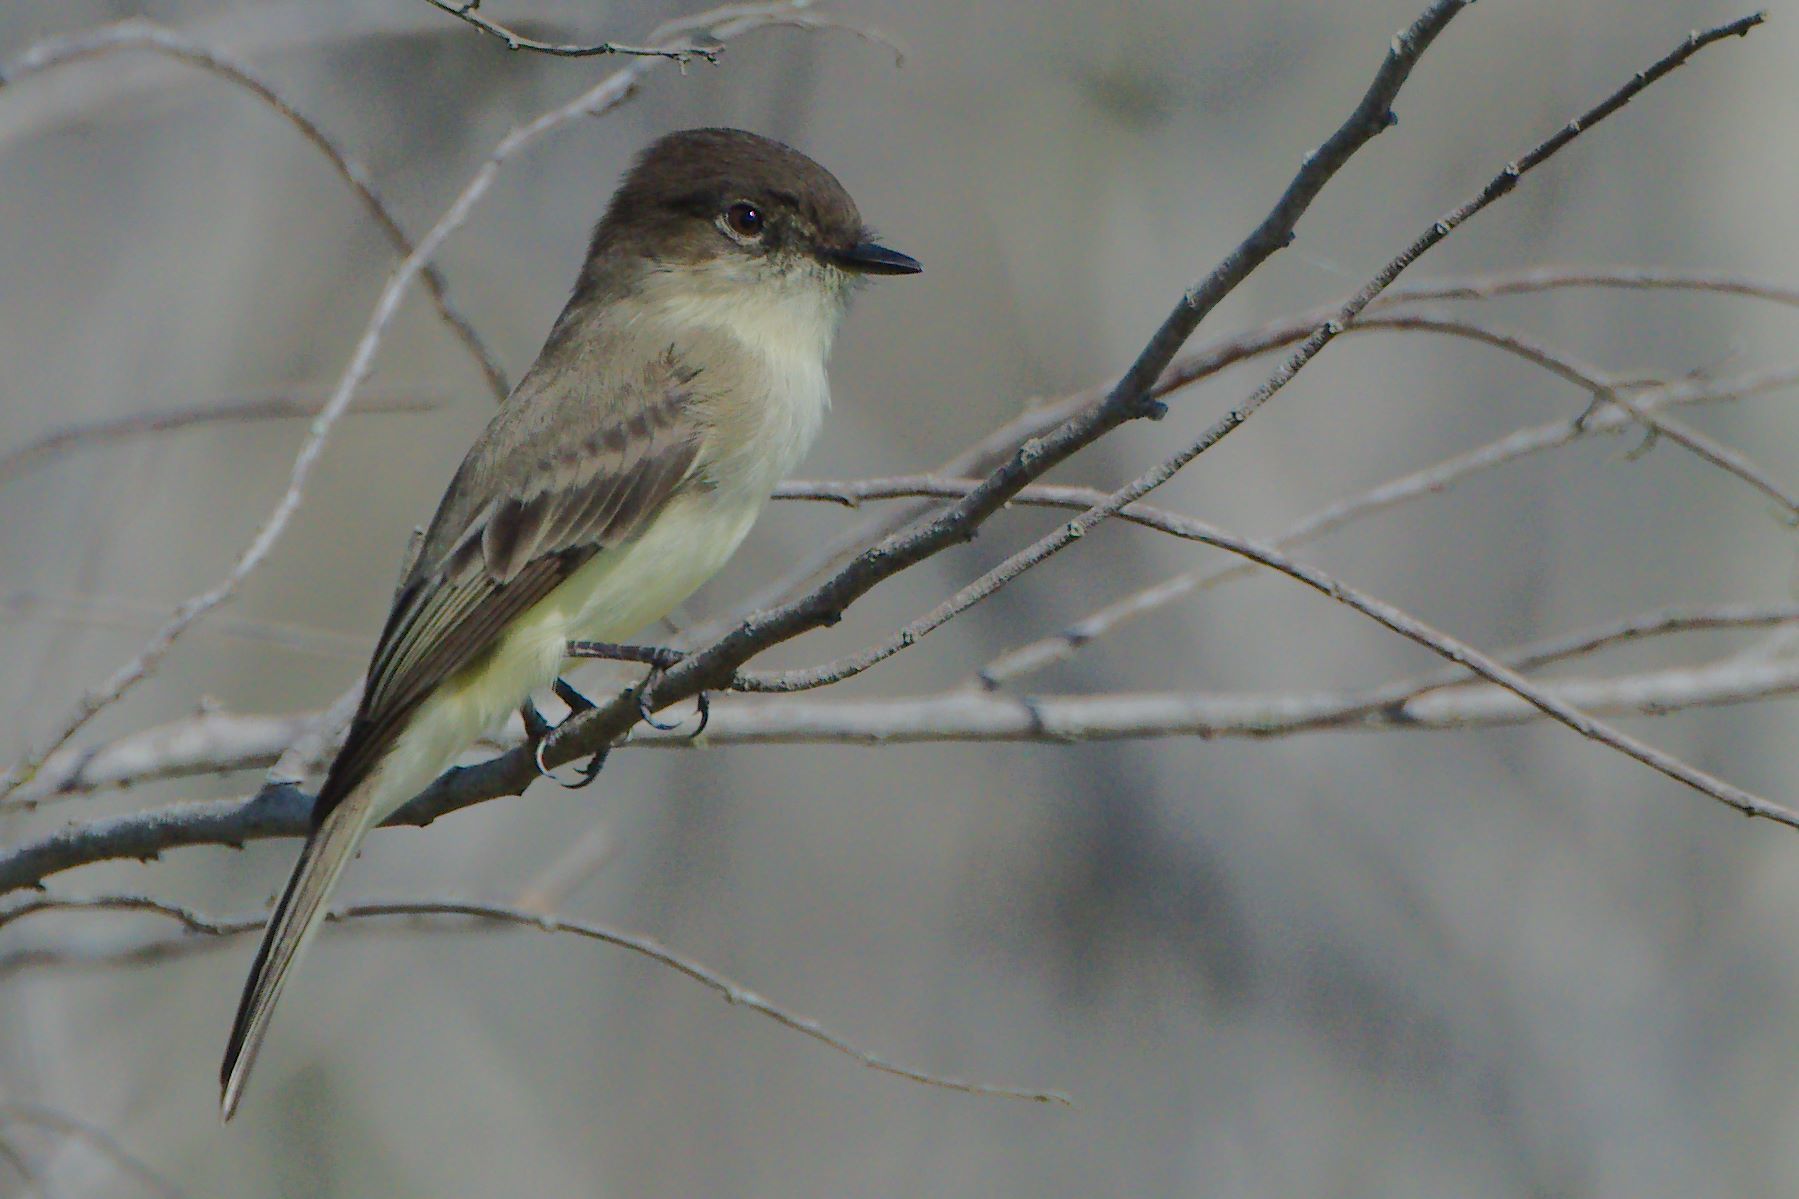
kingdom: Animalia
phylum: Chordata
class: Aves
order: Passeriformes
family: Tyrannidae
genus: Sayornis
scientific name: Sayornis phoebe
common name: Eastern phoebe
